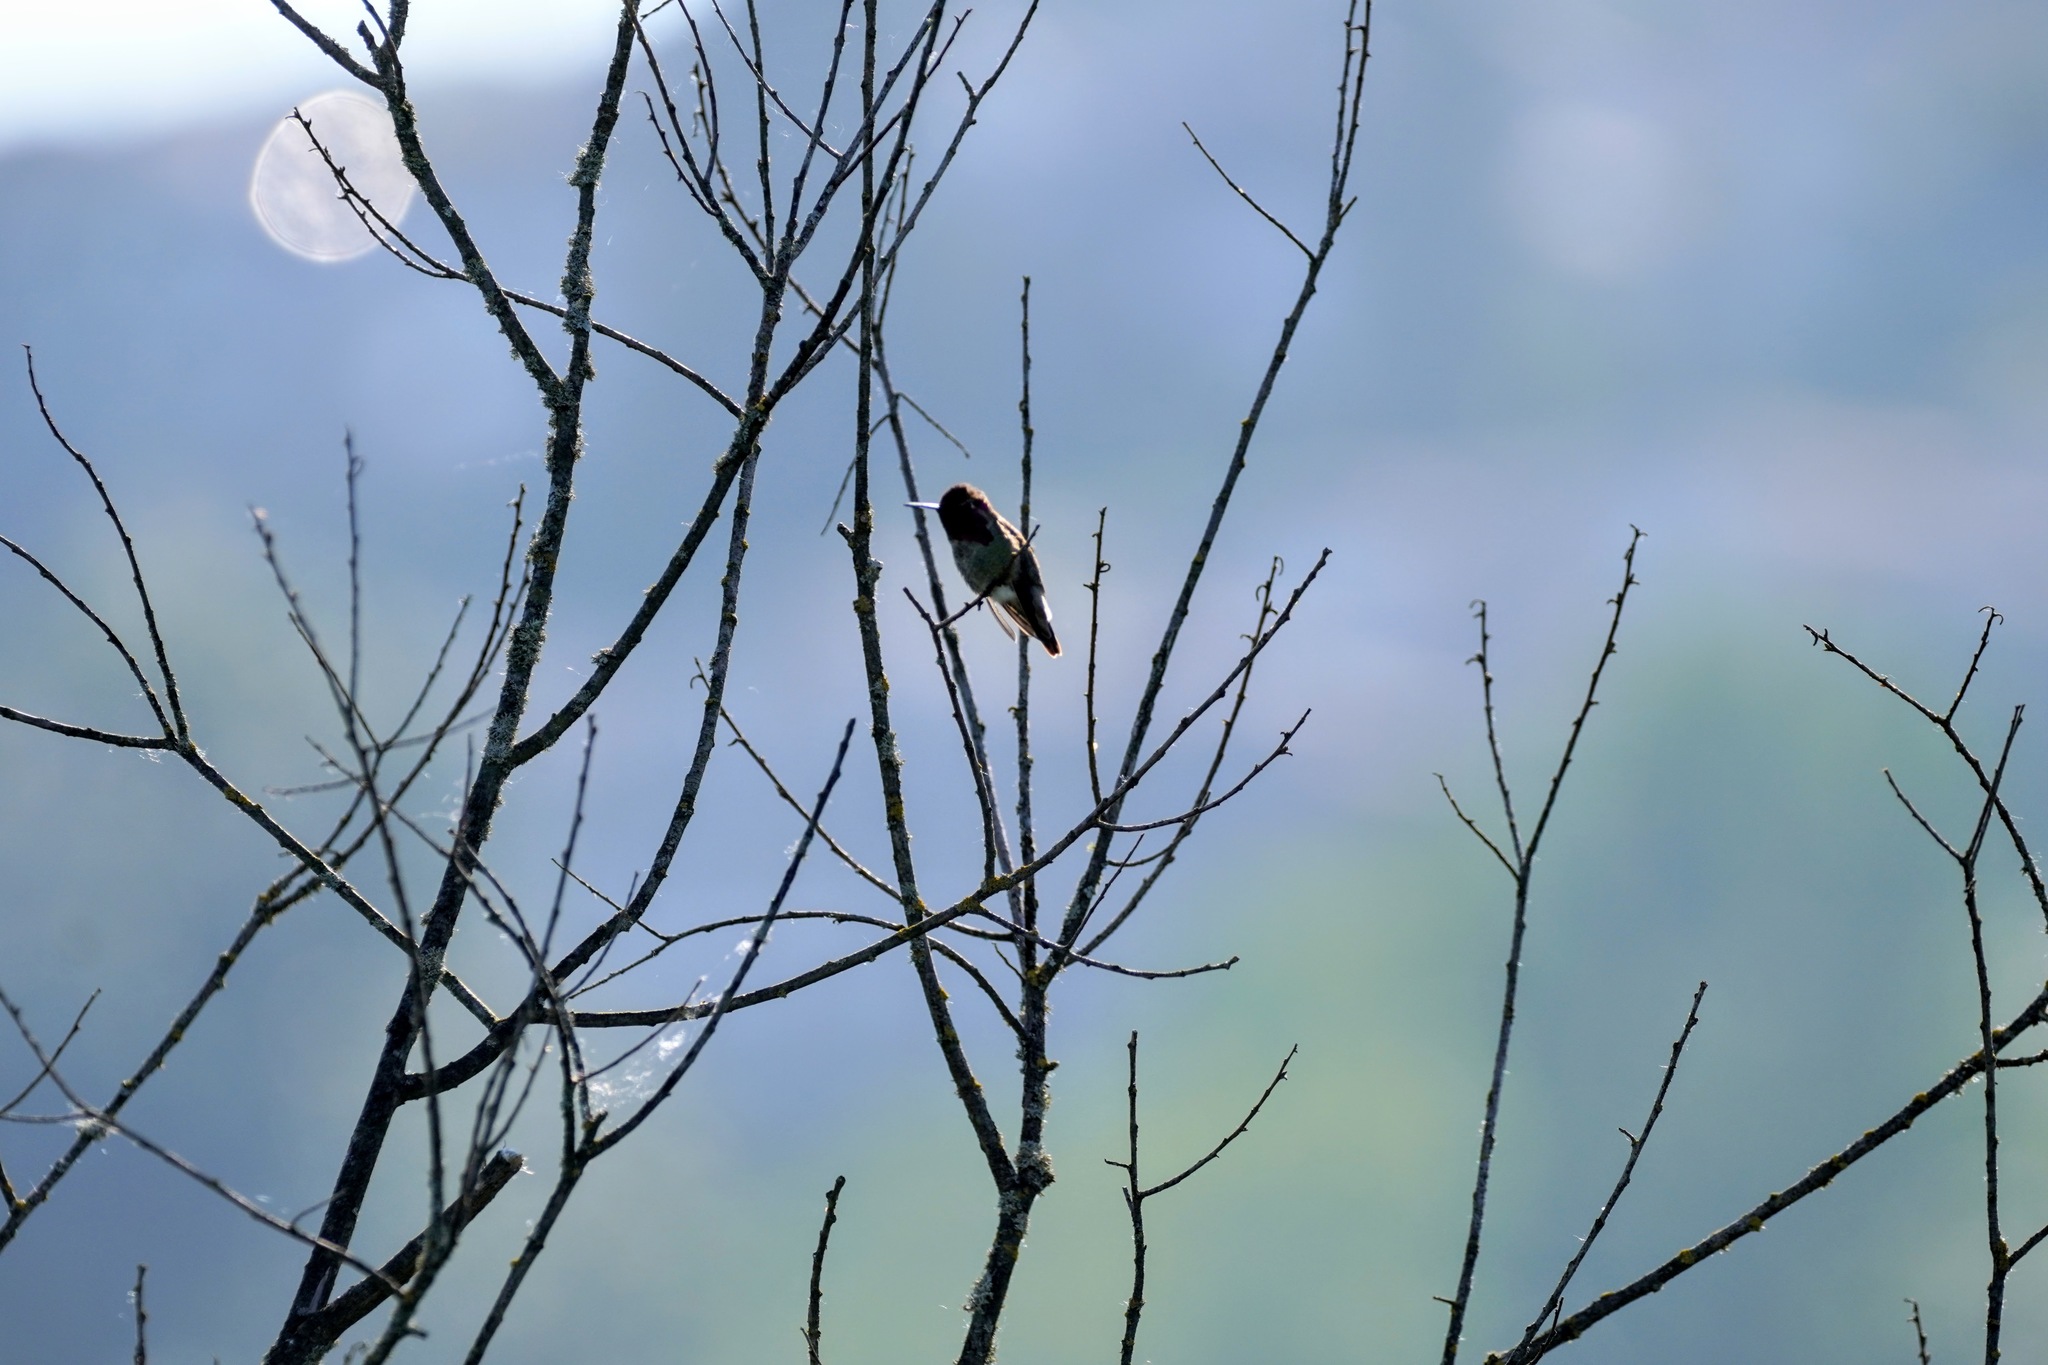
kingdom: Animalia
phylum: Chordata
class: Aves
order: Apodiformes
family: Trochilidae
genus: Calypte
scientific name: Calypte anna
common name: Anna's hummingbird
